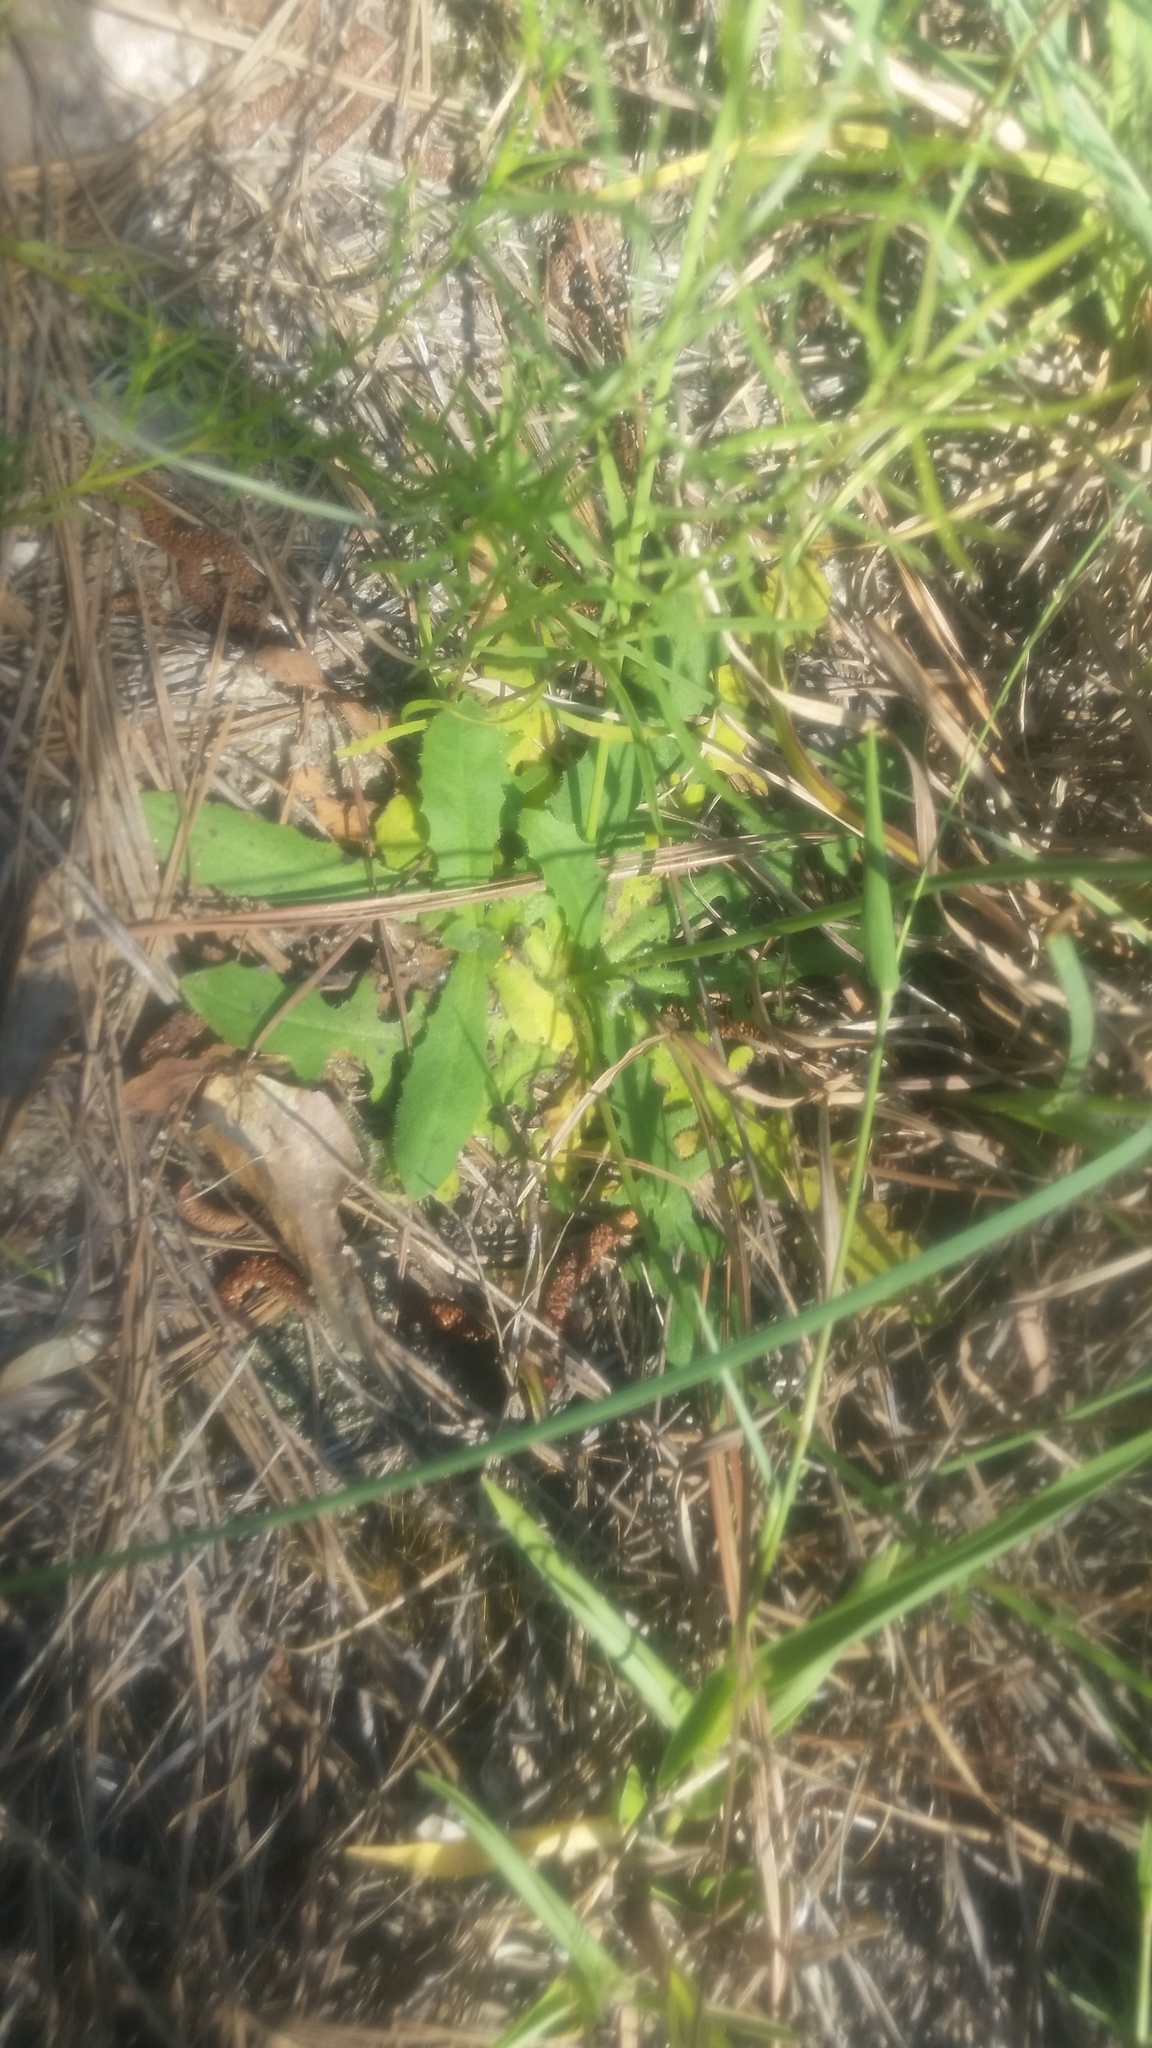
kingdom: Plantae
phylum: Tracheophyta
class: Magnoliopsida
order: Asterales
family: Asteraceae
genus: Hypochaeris
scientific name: Hypochaeris radicata
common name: Flatweed
